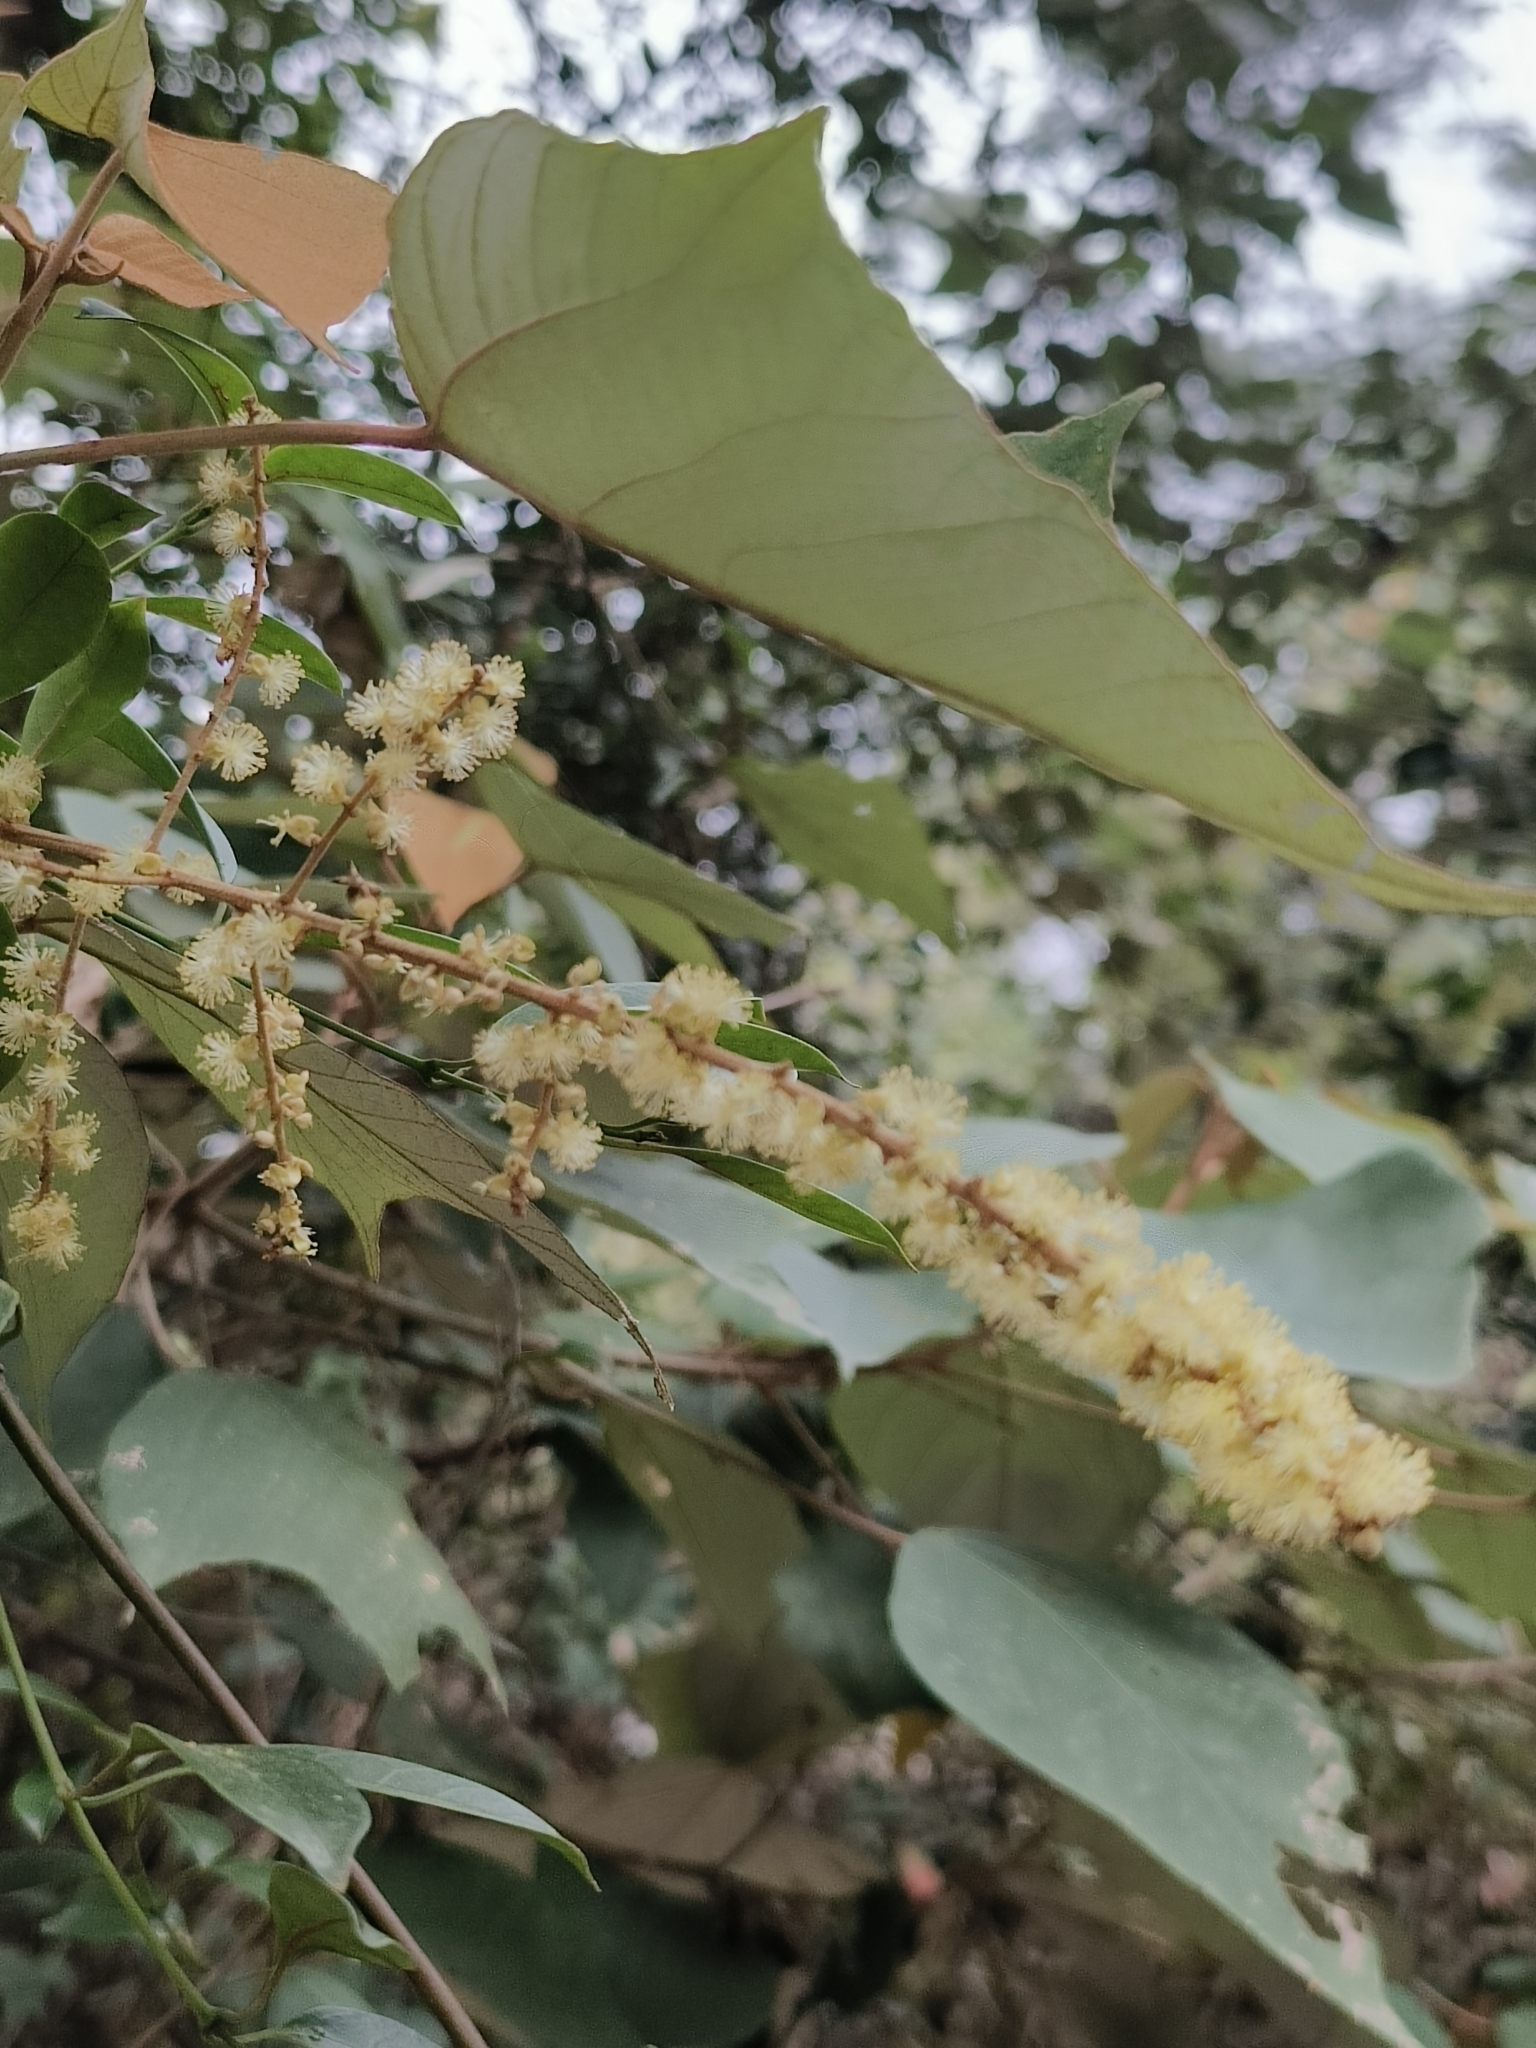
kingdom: Plantae
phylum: Tracheophyta
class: Magnoliopsida
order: Malpighiales
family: Euphorbiaceae
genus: Mallotus
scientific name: Mallotus paniculatus
